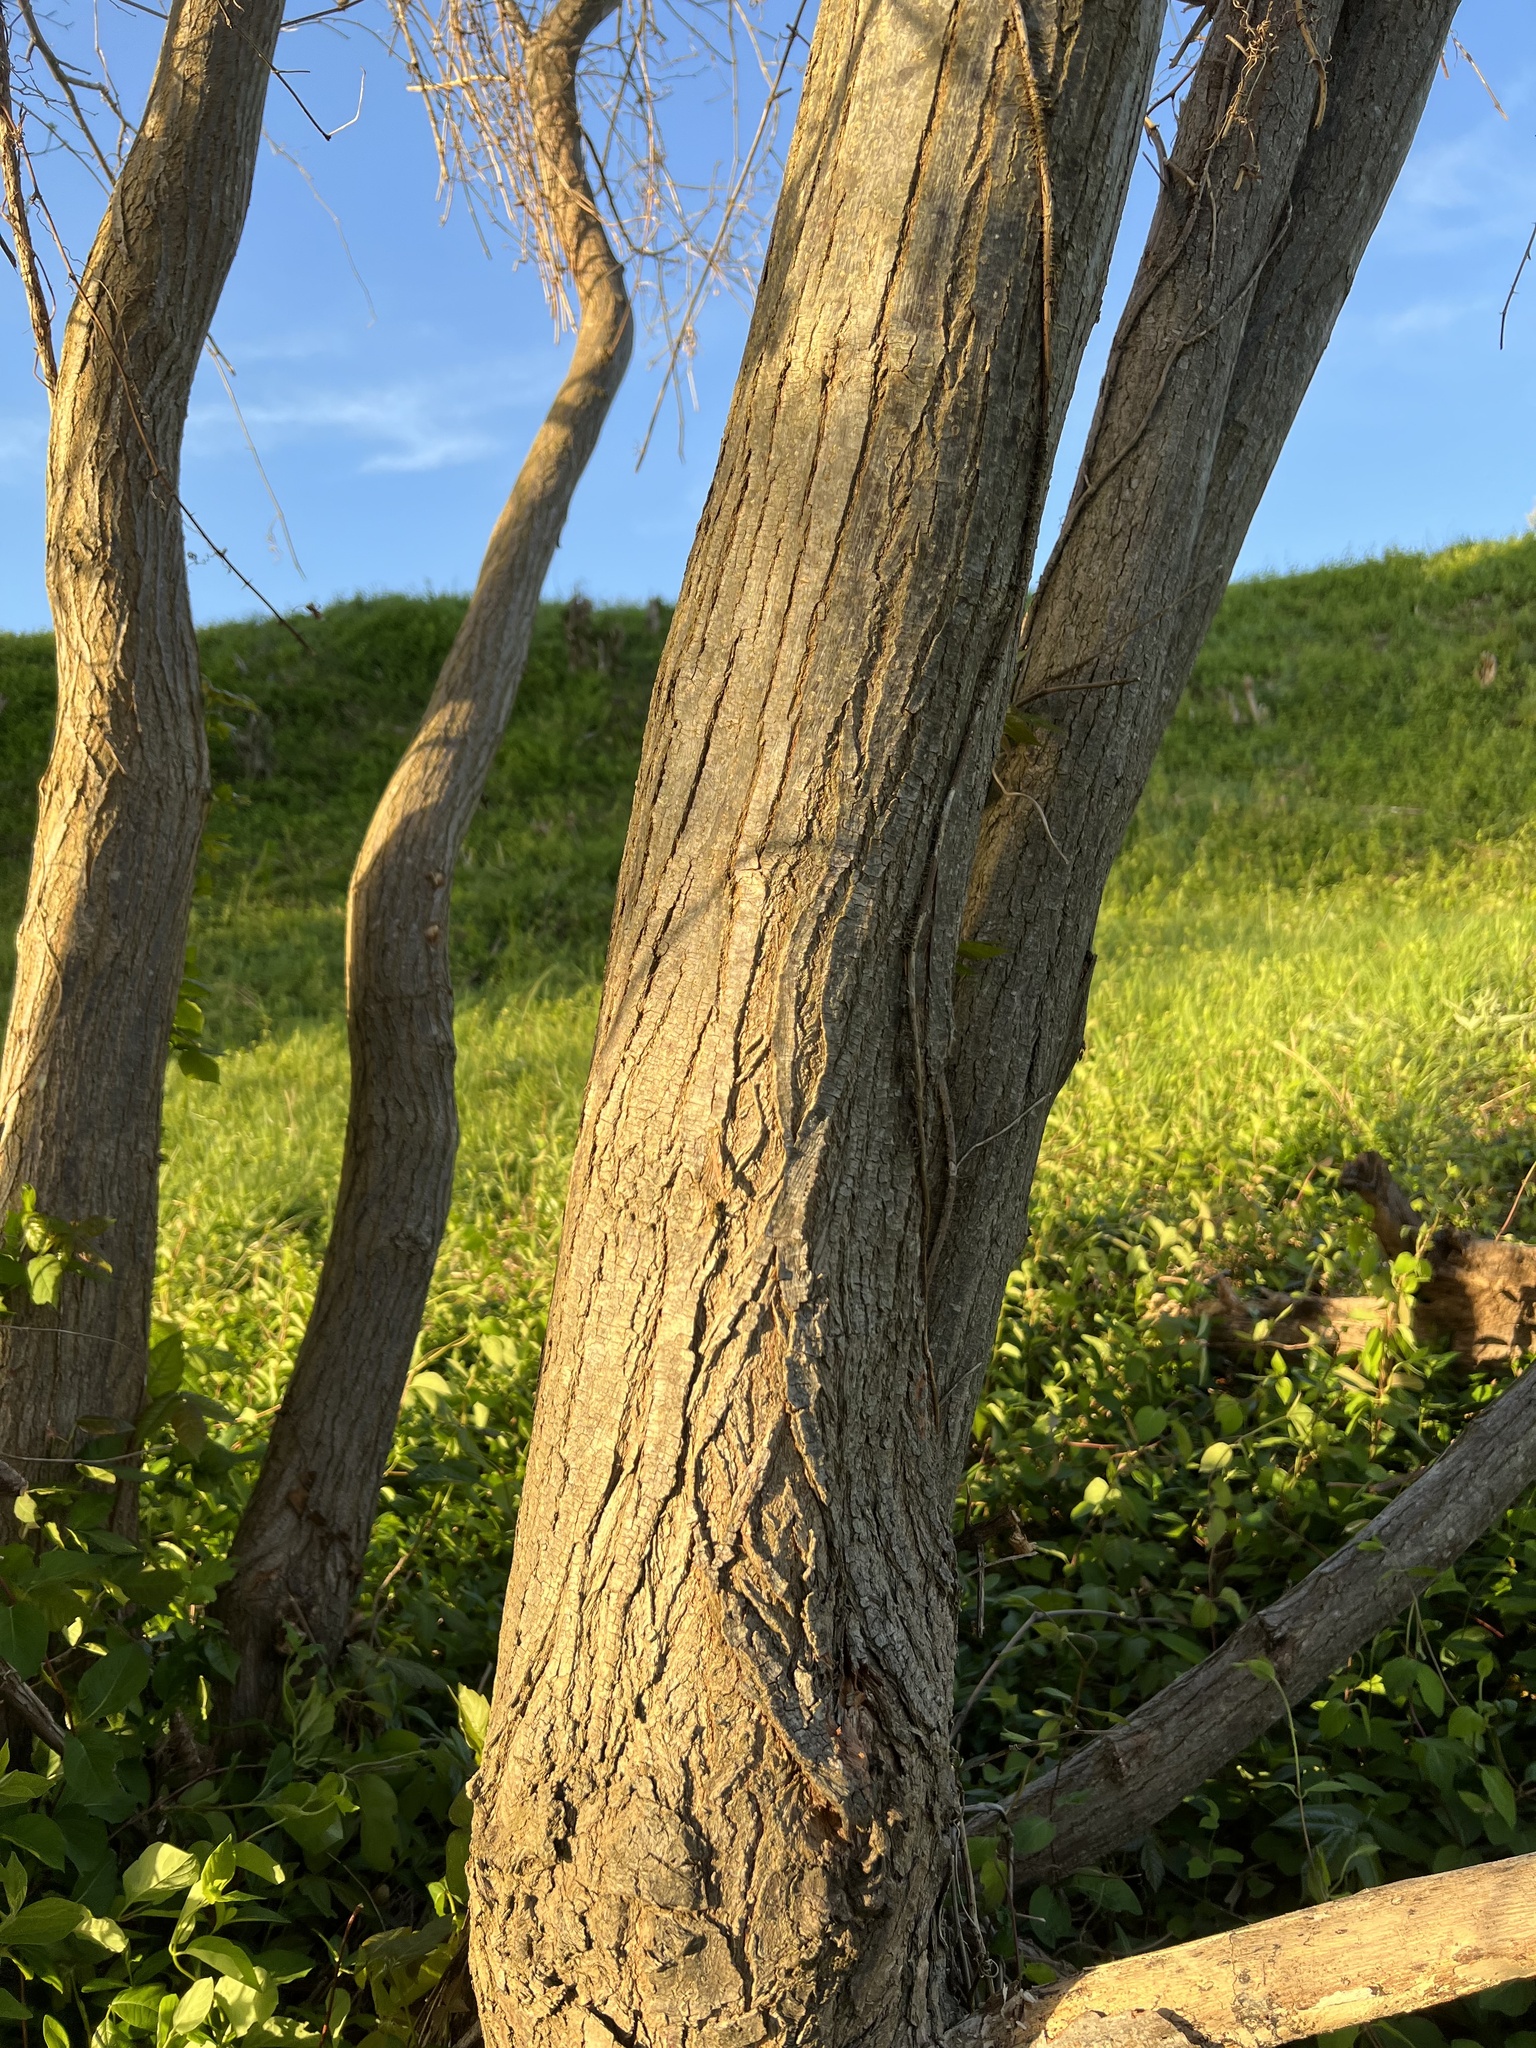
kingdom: Plantae
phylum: Tracheophyta
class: Magnoliopsida
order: Sapindales
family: Meliaceae
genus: Melia
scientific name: Melia azedarach
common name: Chinaberrytree
